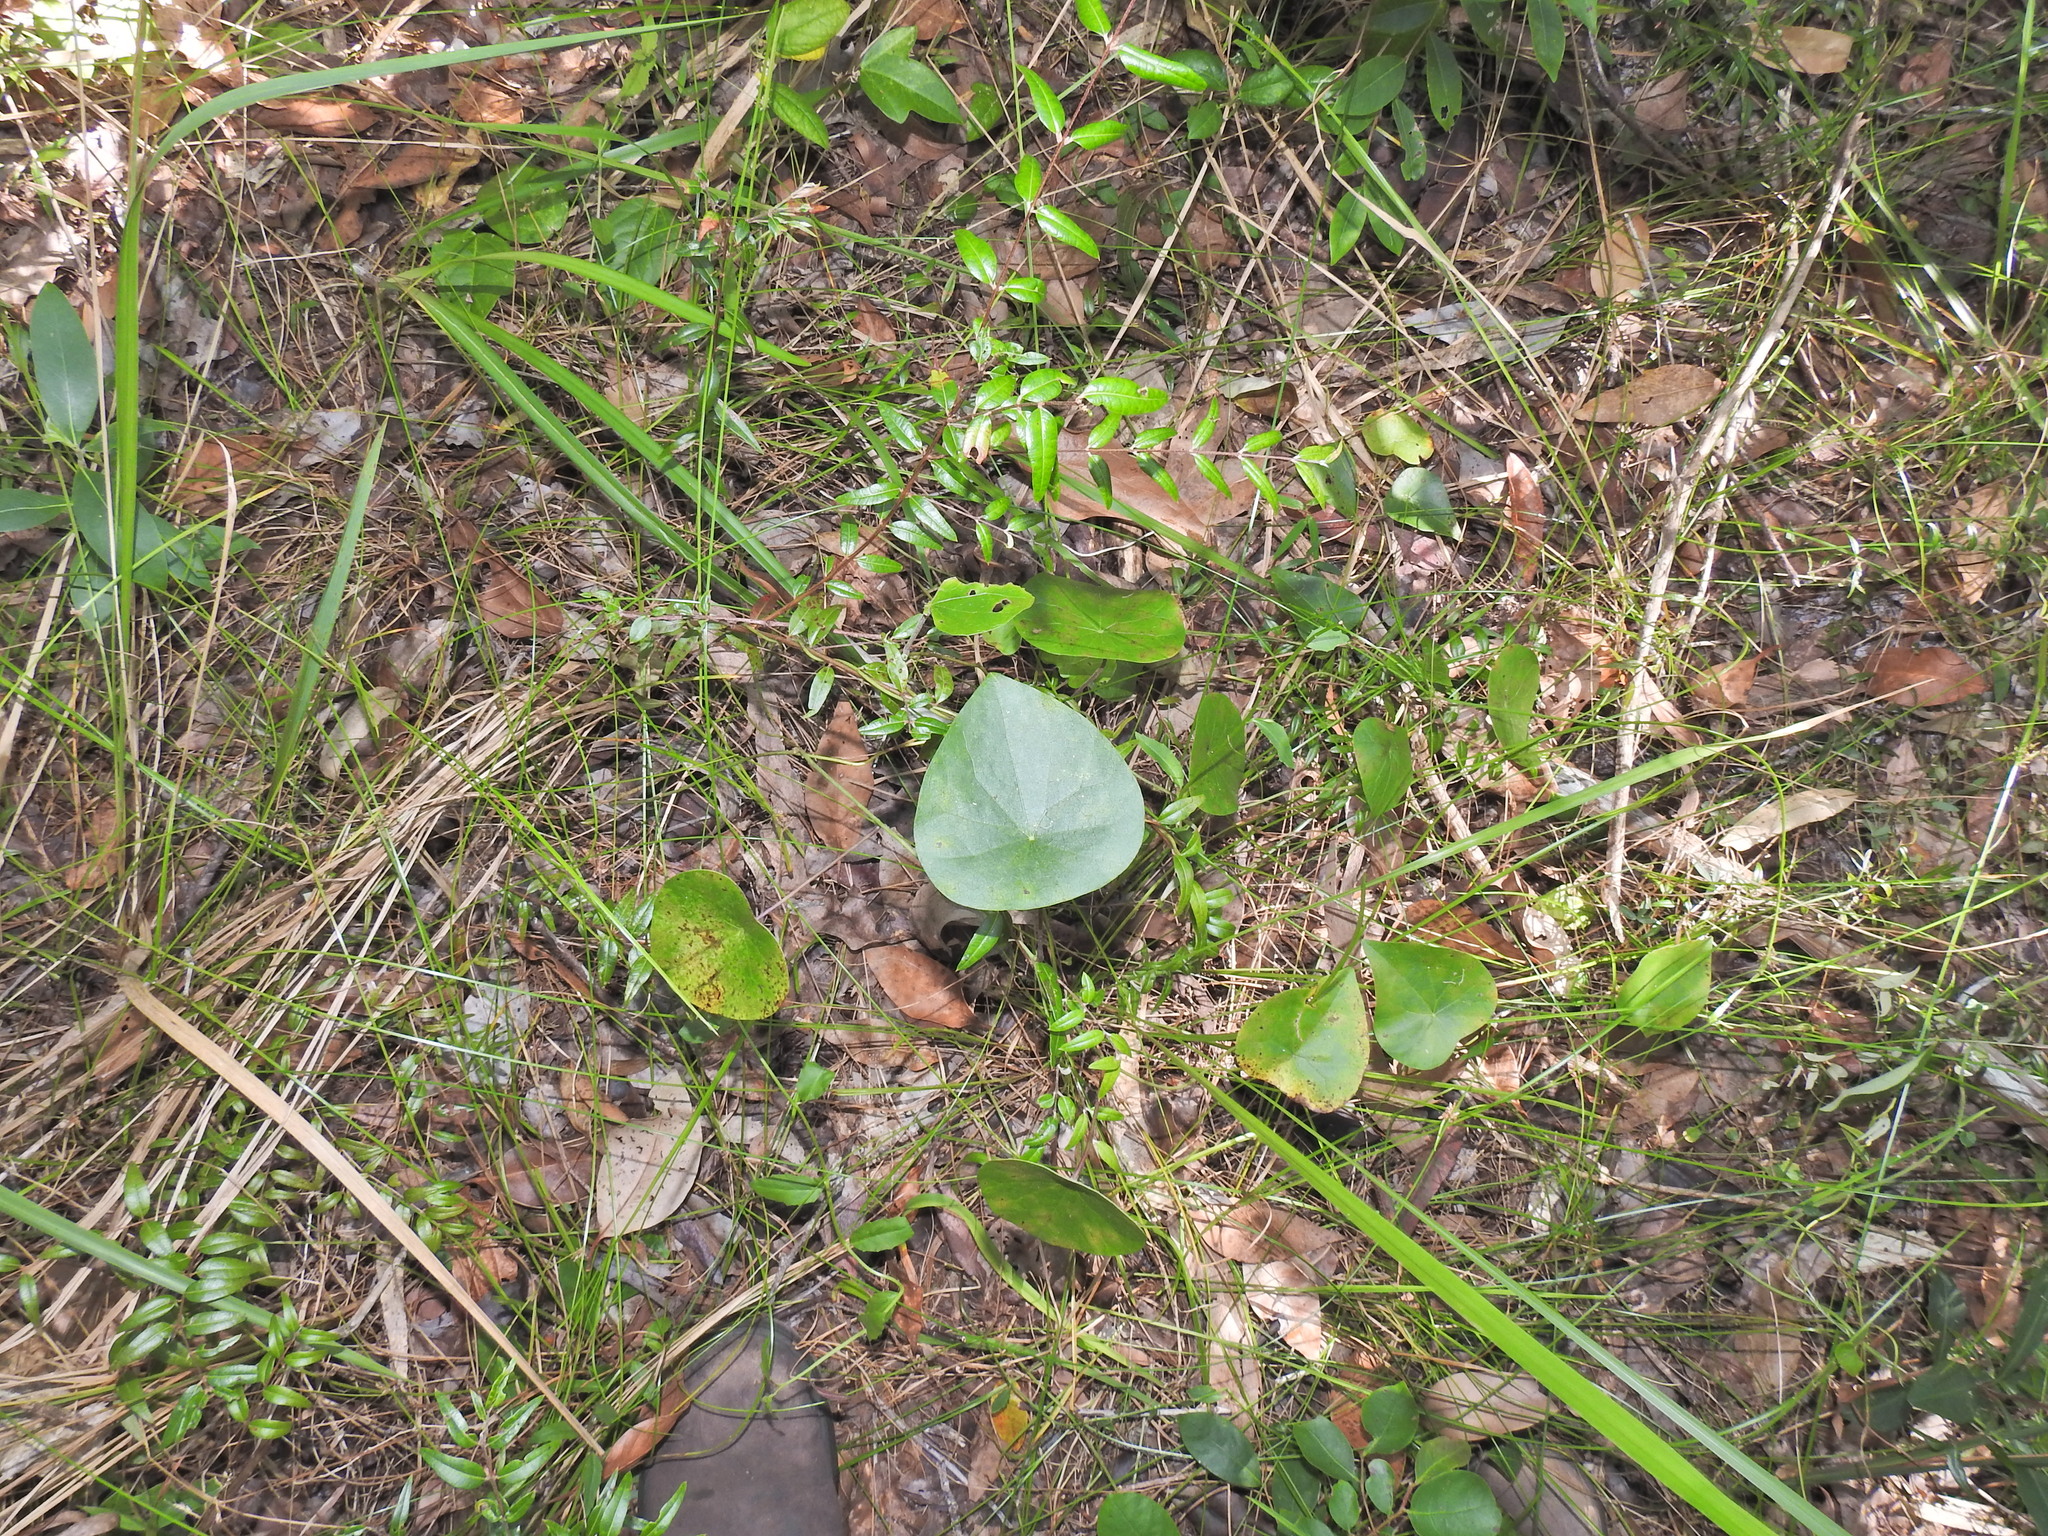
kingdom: Plantae
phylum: Tracheophyta
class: Magnoliopsida
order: Ranunculales
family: Menispermaceae
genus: Stephania
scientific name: Stephania japonica
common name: Snake vine
